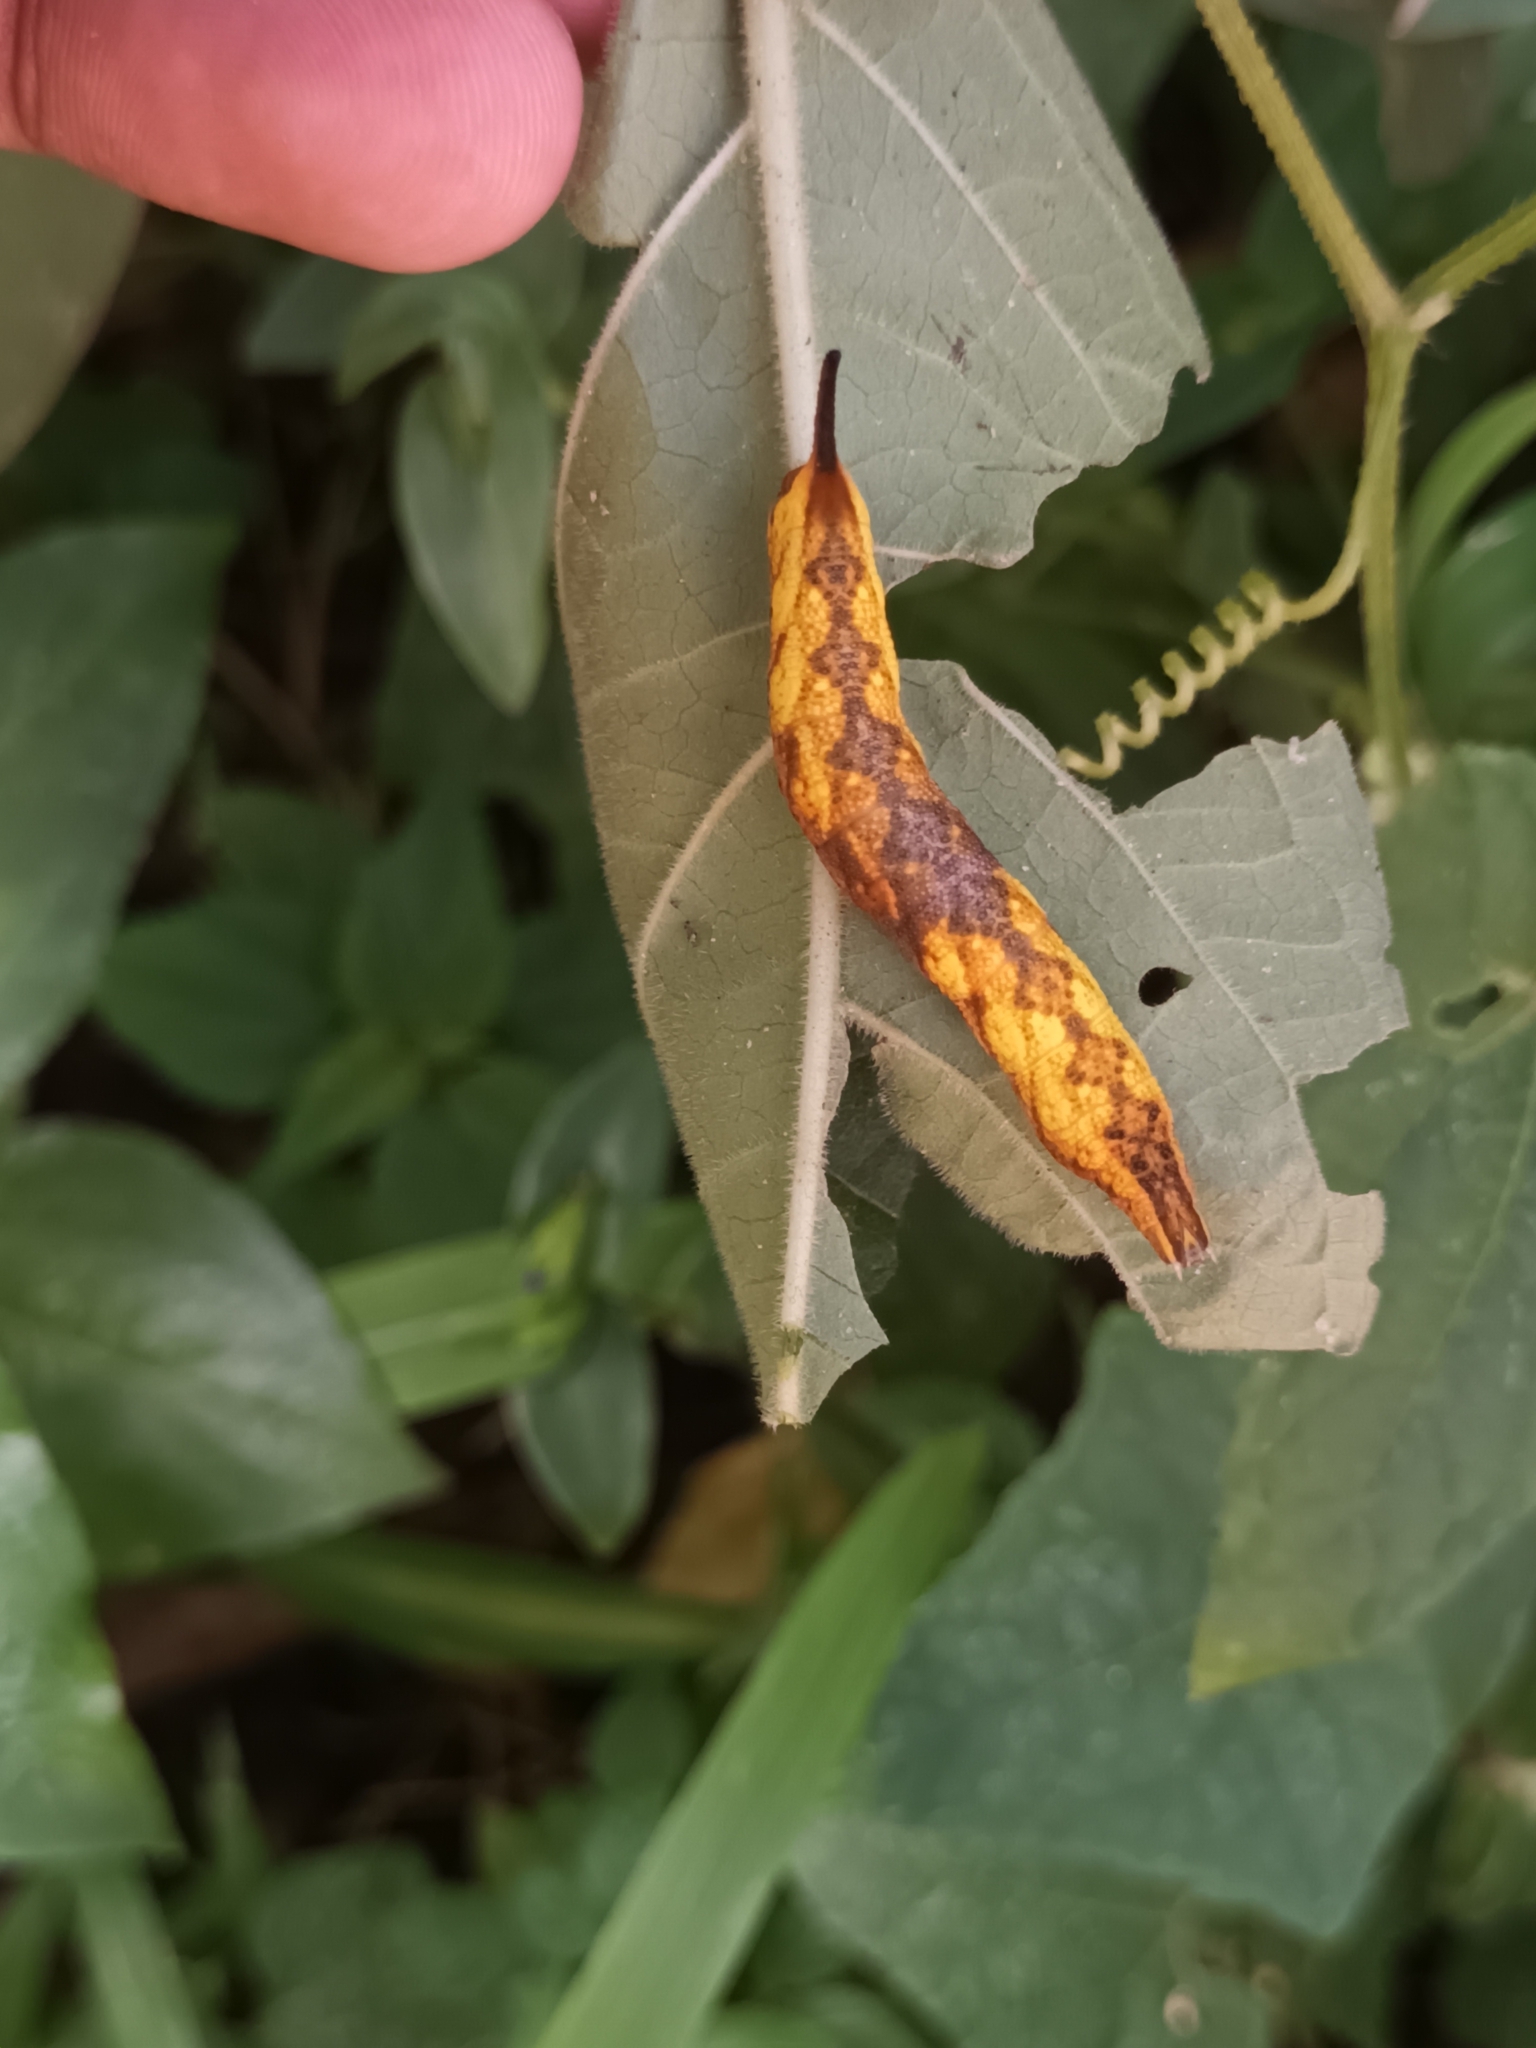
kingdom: Animalia
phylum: Arthropoda
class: Insecta
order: Lepidoptera
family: Sphingidae
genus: Neogurelca
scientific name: Neogurelca hyas
